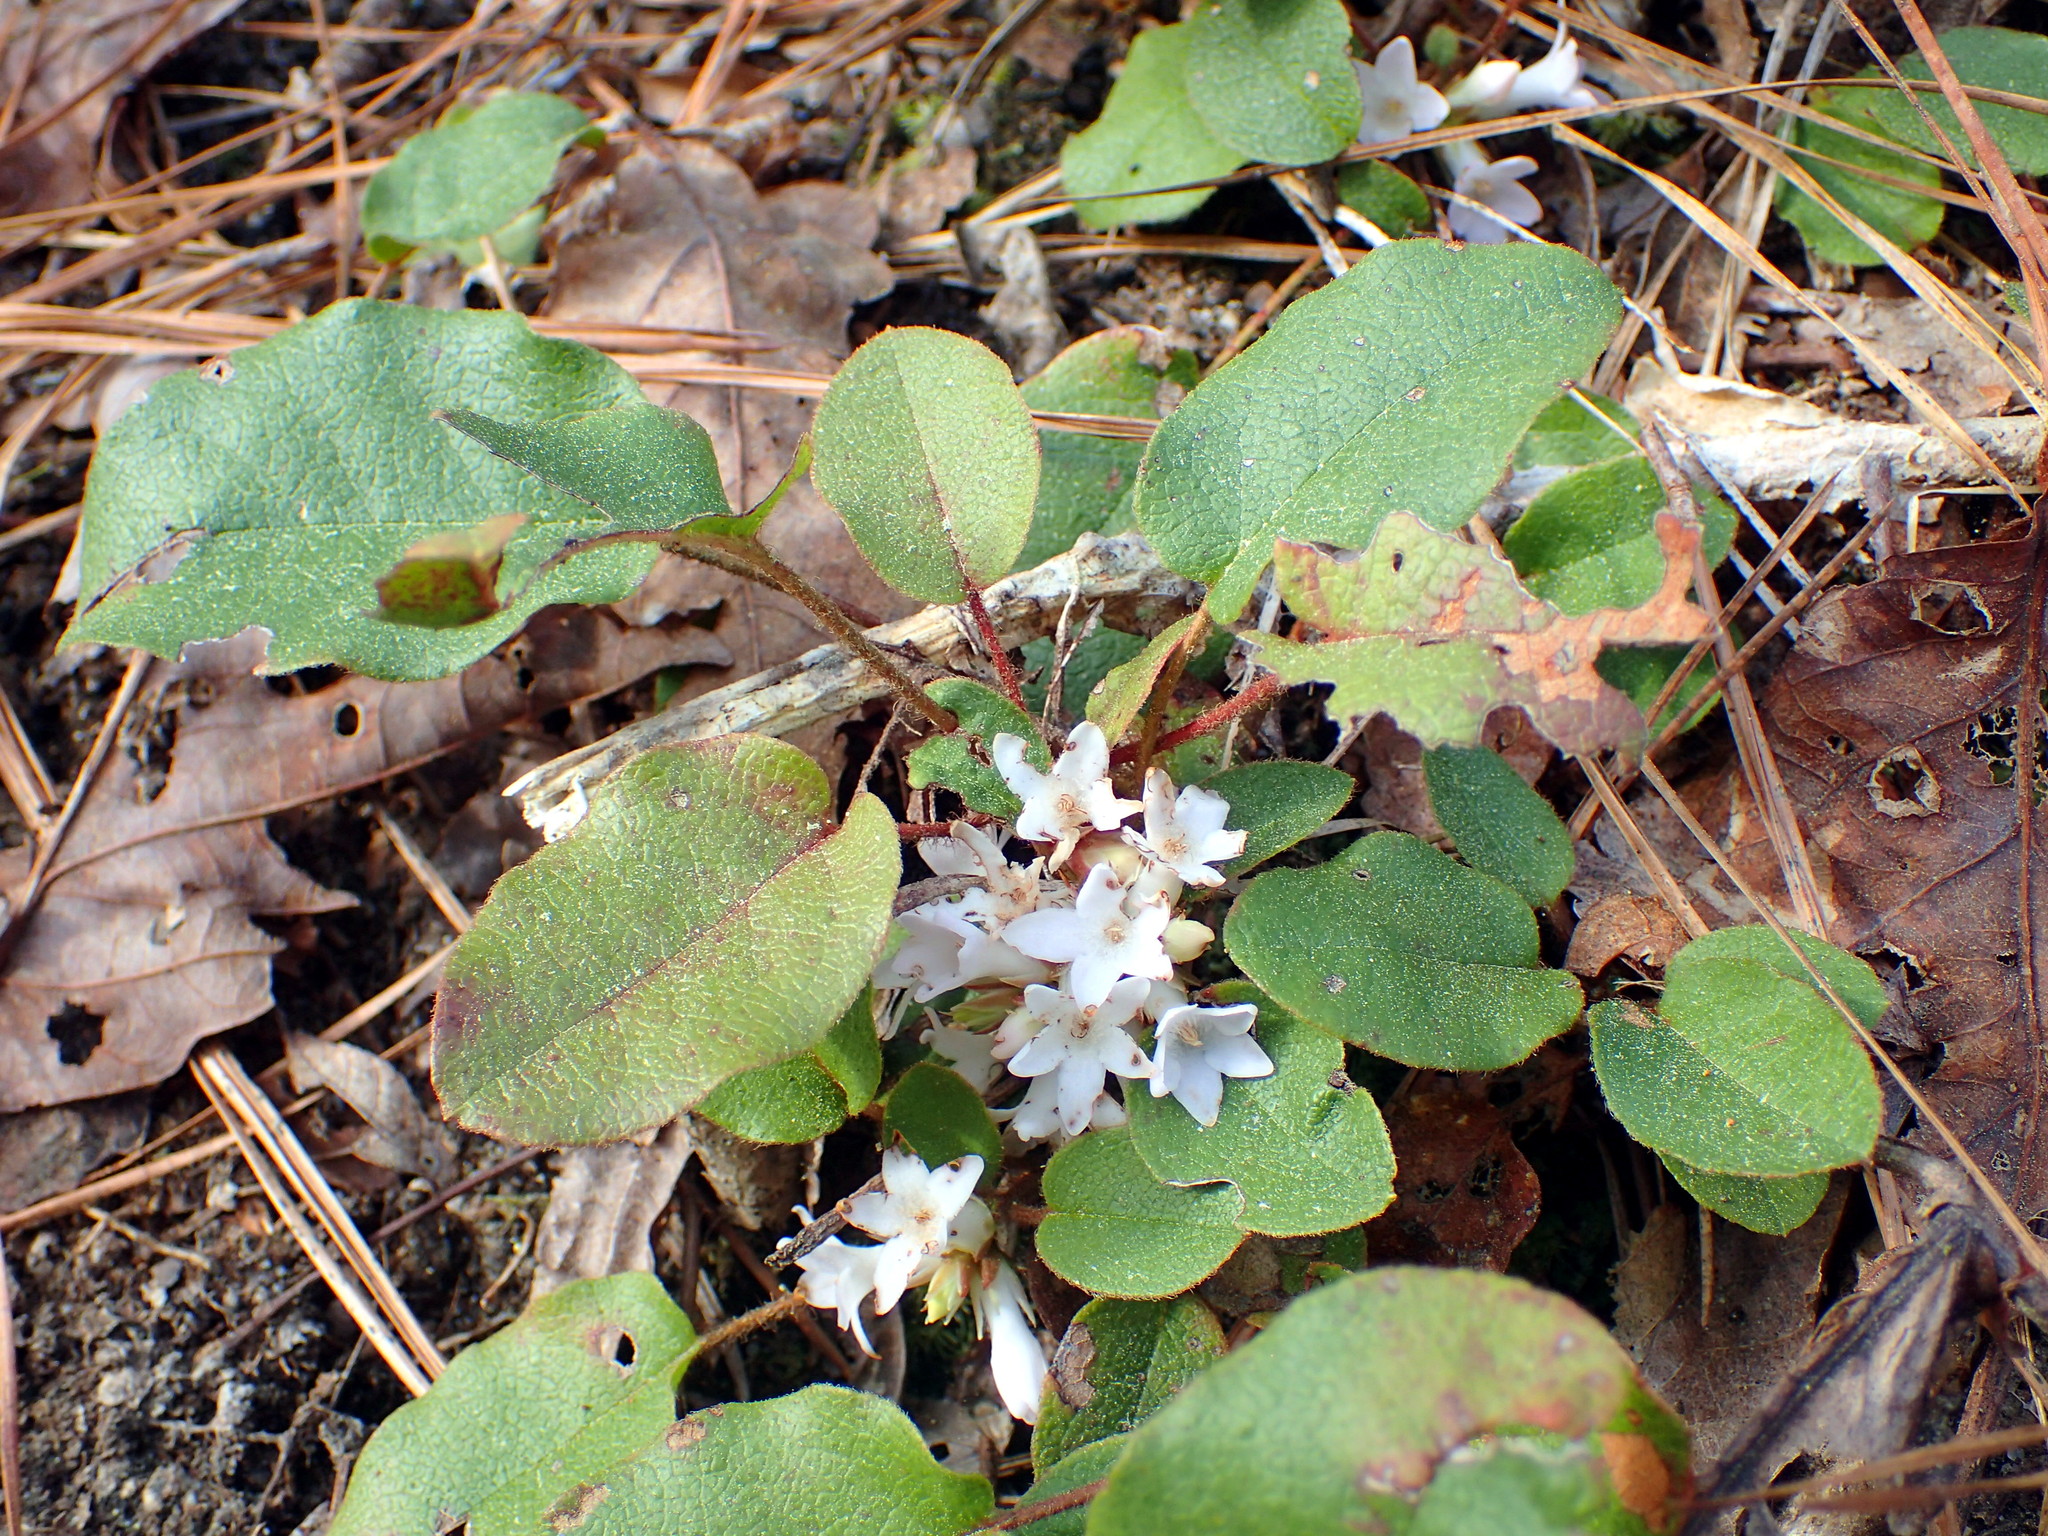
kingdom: Plantae
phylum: Tracheophyta
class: Magnoliopsida
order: Ericales
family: Ericaceae
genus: Epigaea
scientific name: Epigaea repens
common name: Gravelroot
